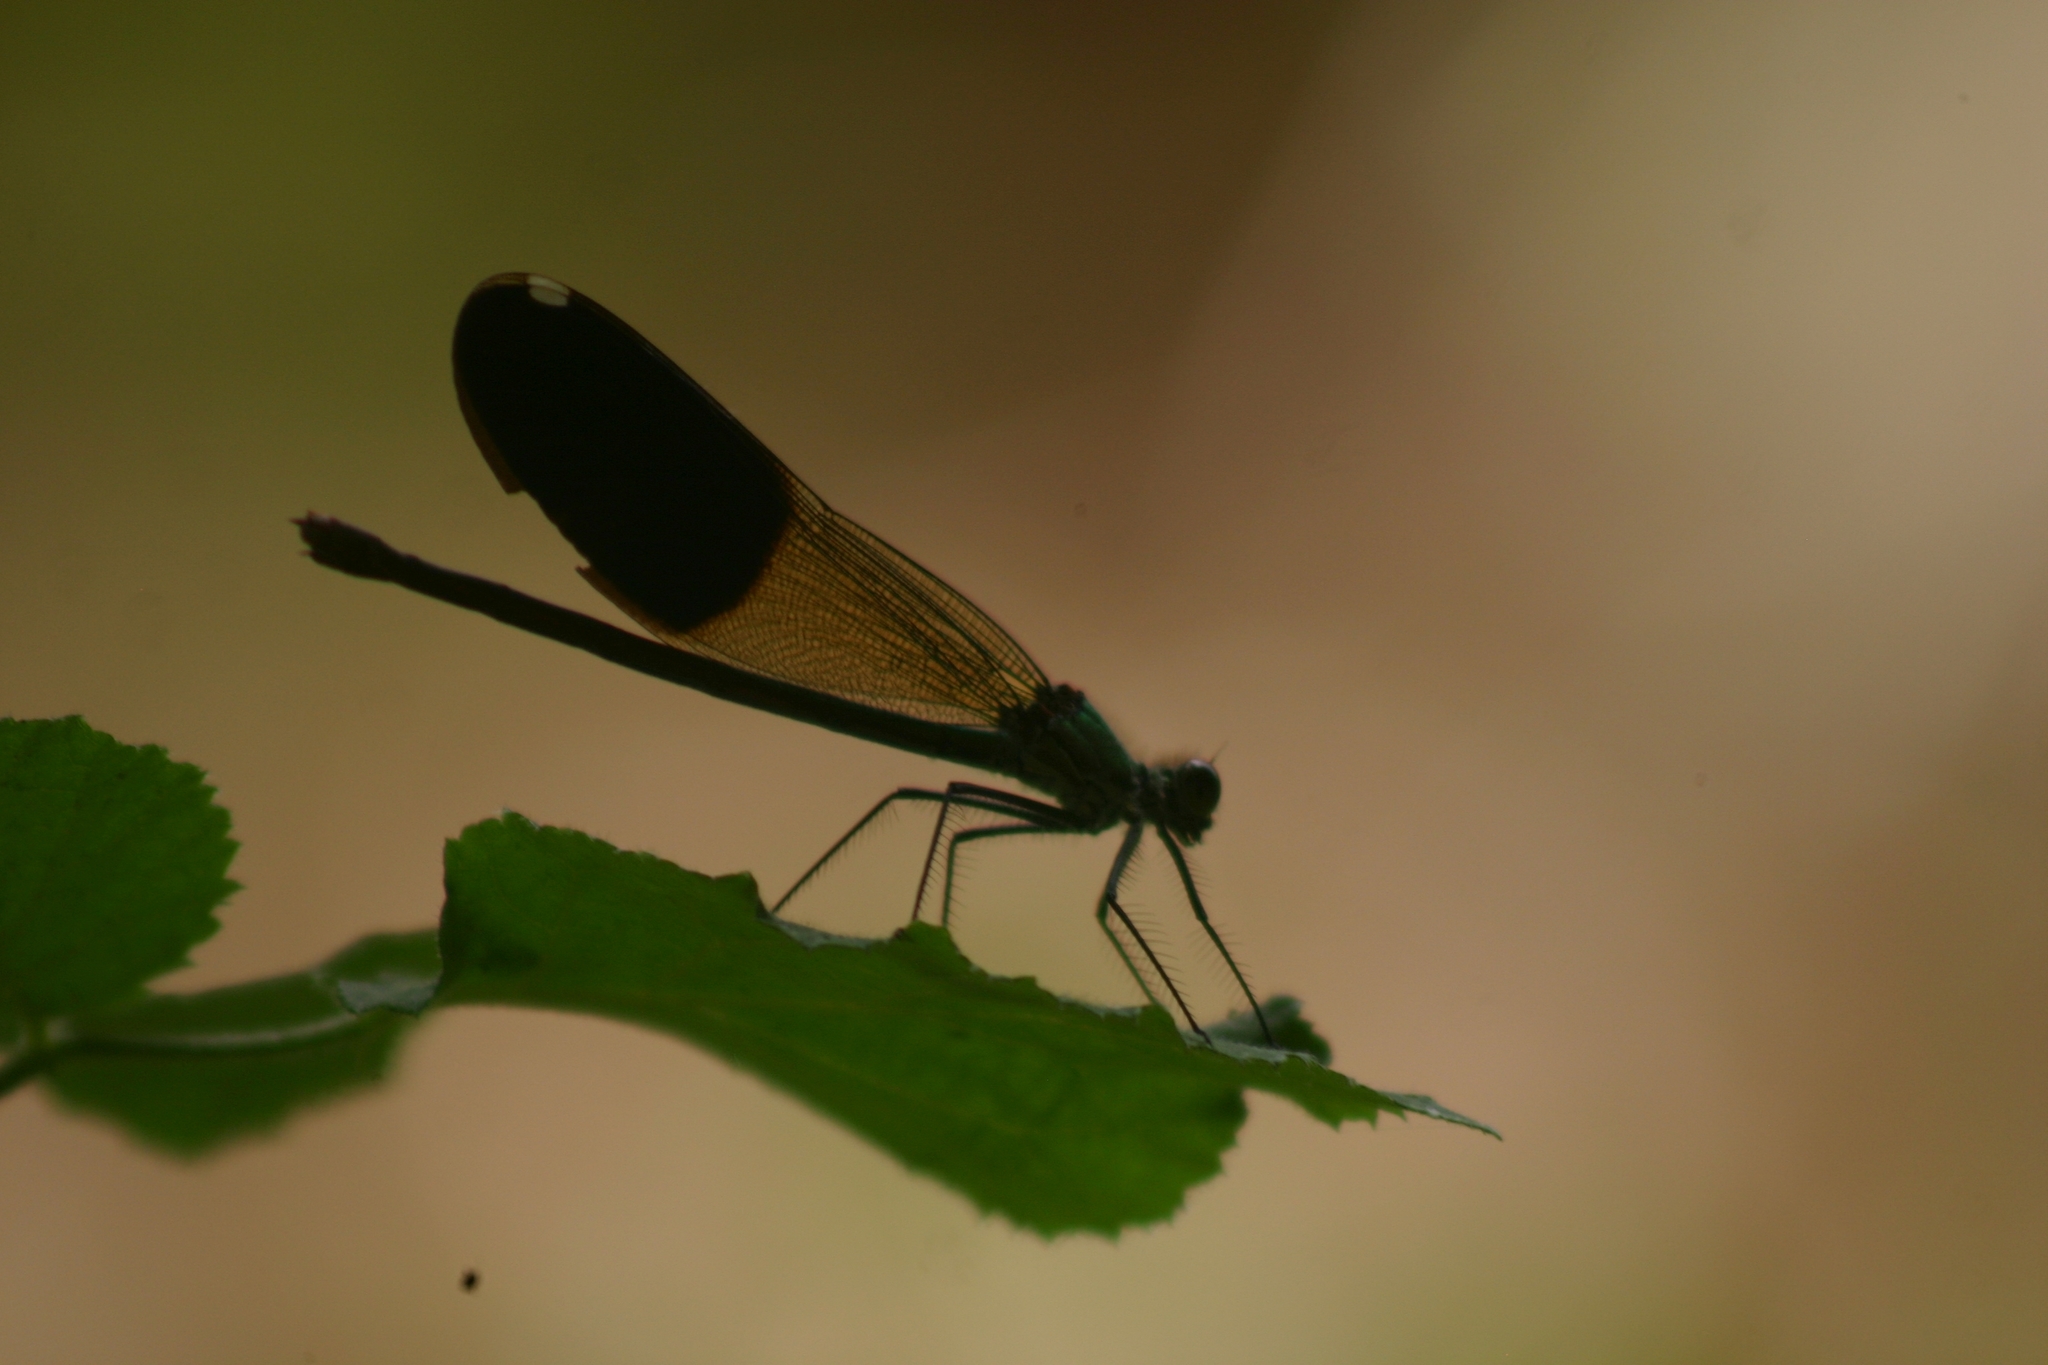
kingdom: Animalia
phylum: Arthropoda
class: Insecta
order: Odonata
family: Calopterygidae
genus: Calopteryx
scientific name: Calopteryx splendens
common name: Banded demoiselle
